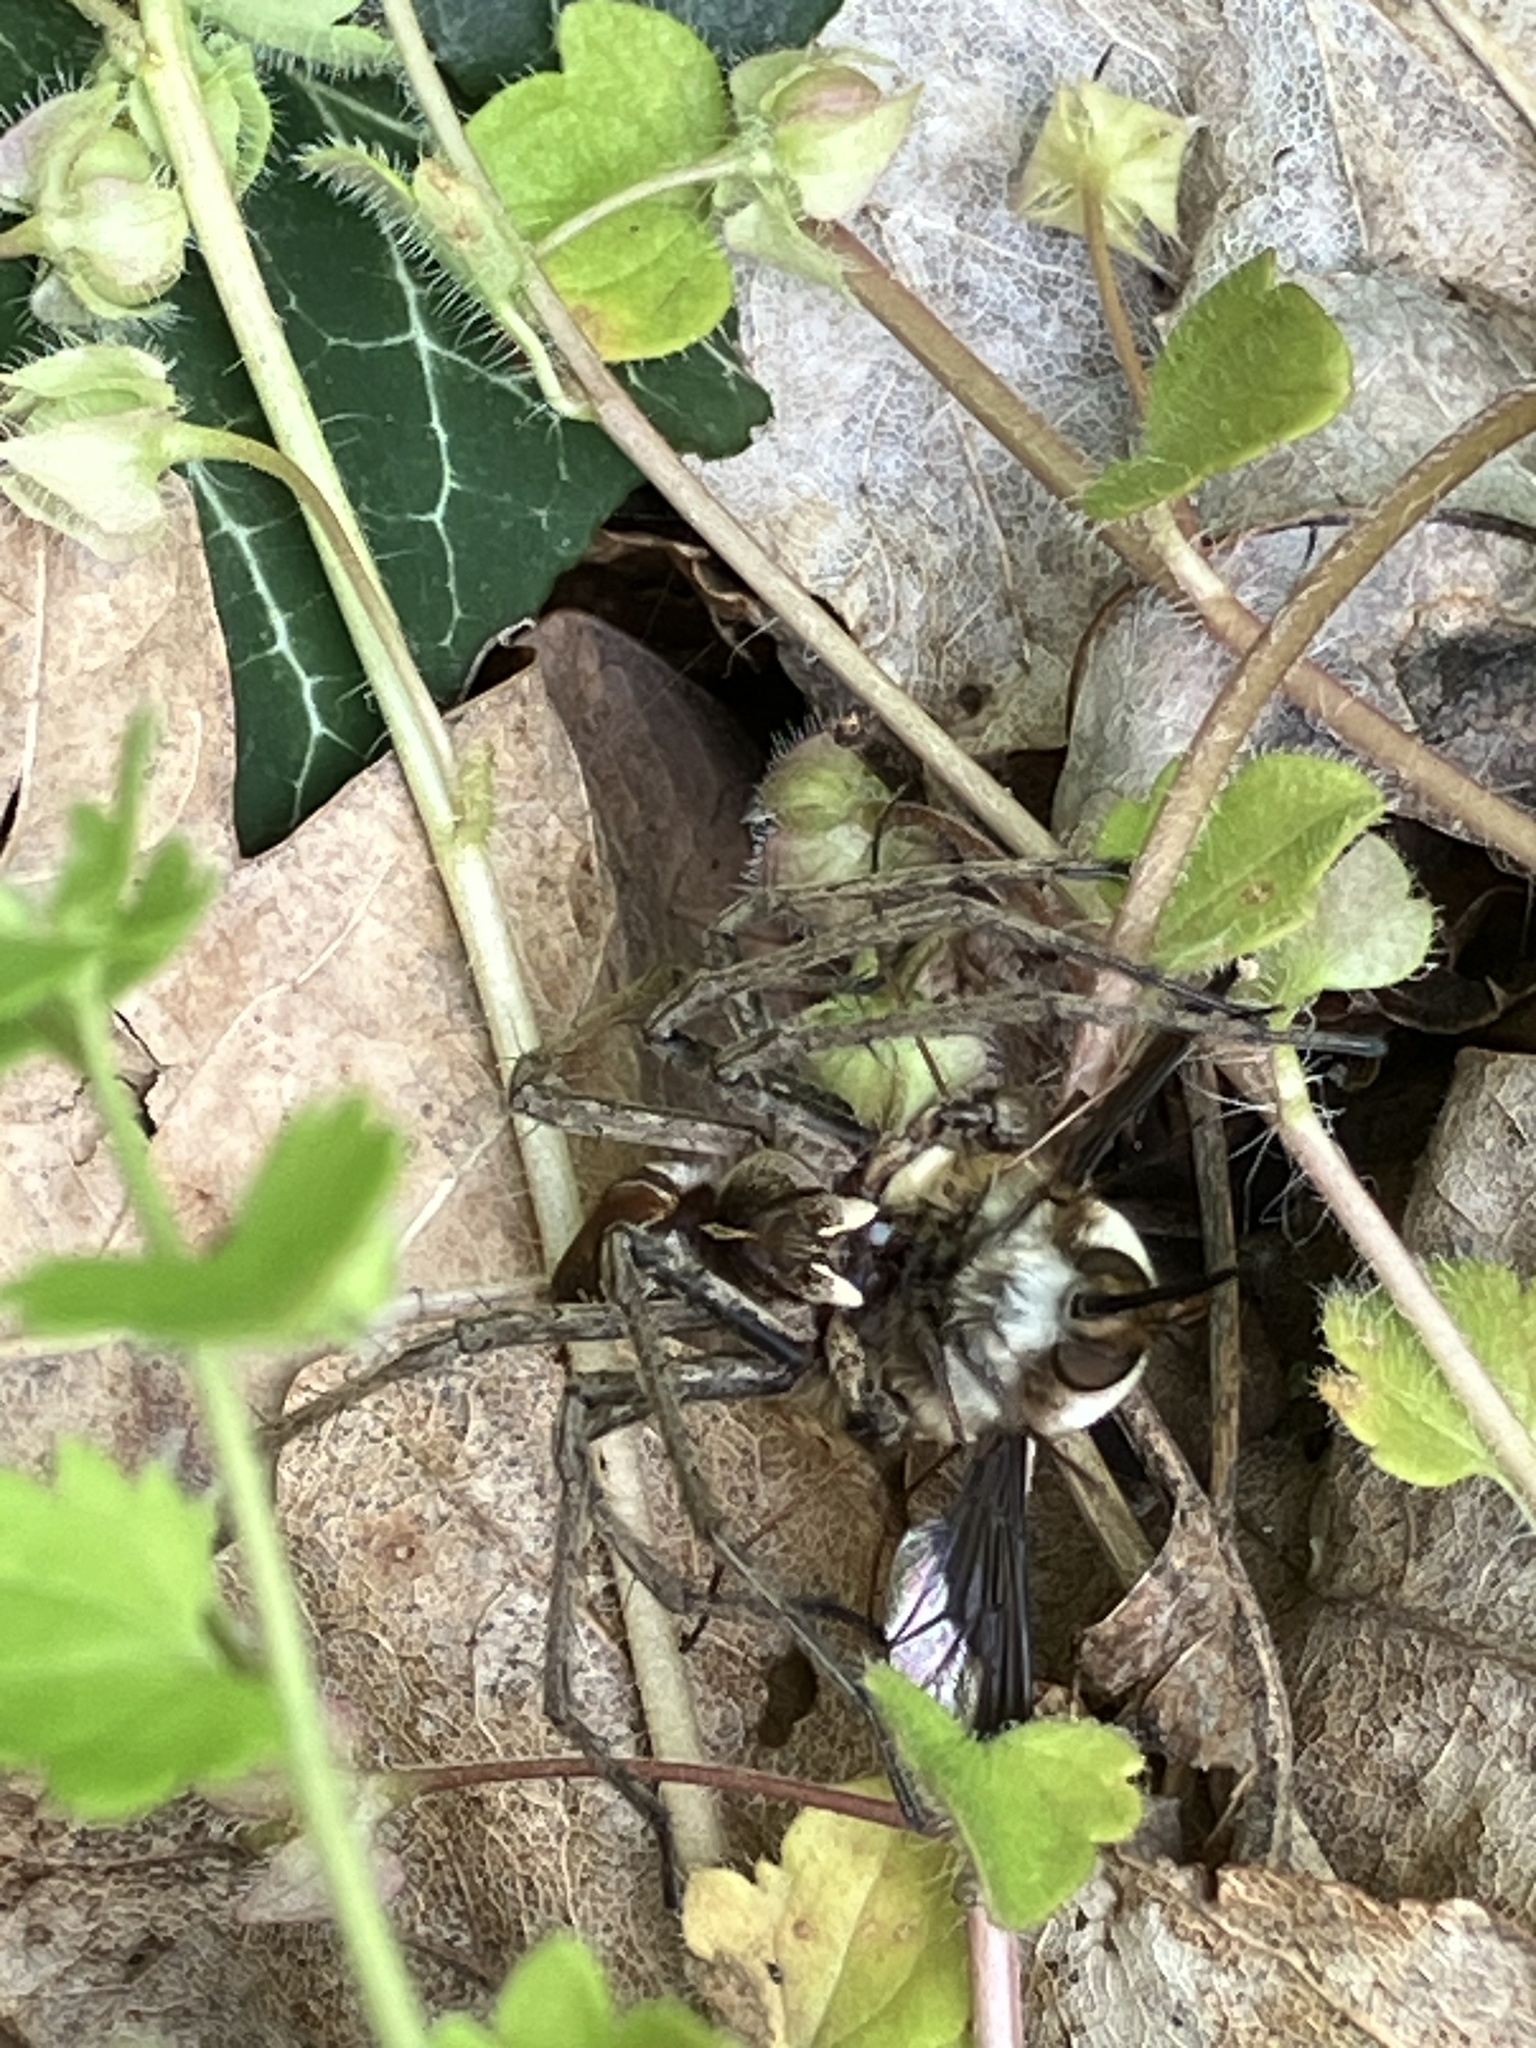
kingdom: Animalia
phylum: Arthropoda
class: Arachnida
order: Araneae
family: Pisauridae
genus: Pisaura
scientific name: Pisaura mirabilis
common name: Tent spider
